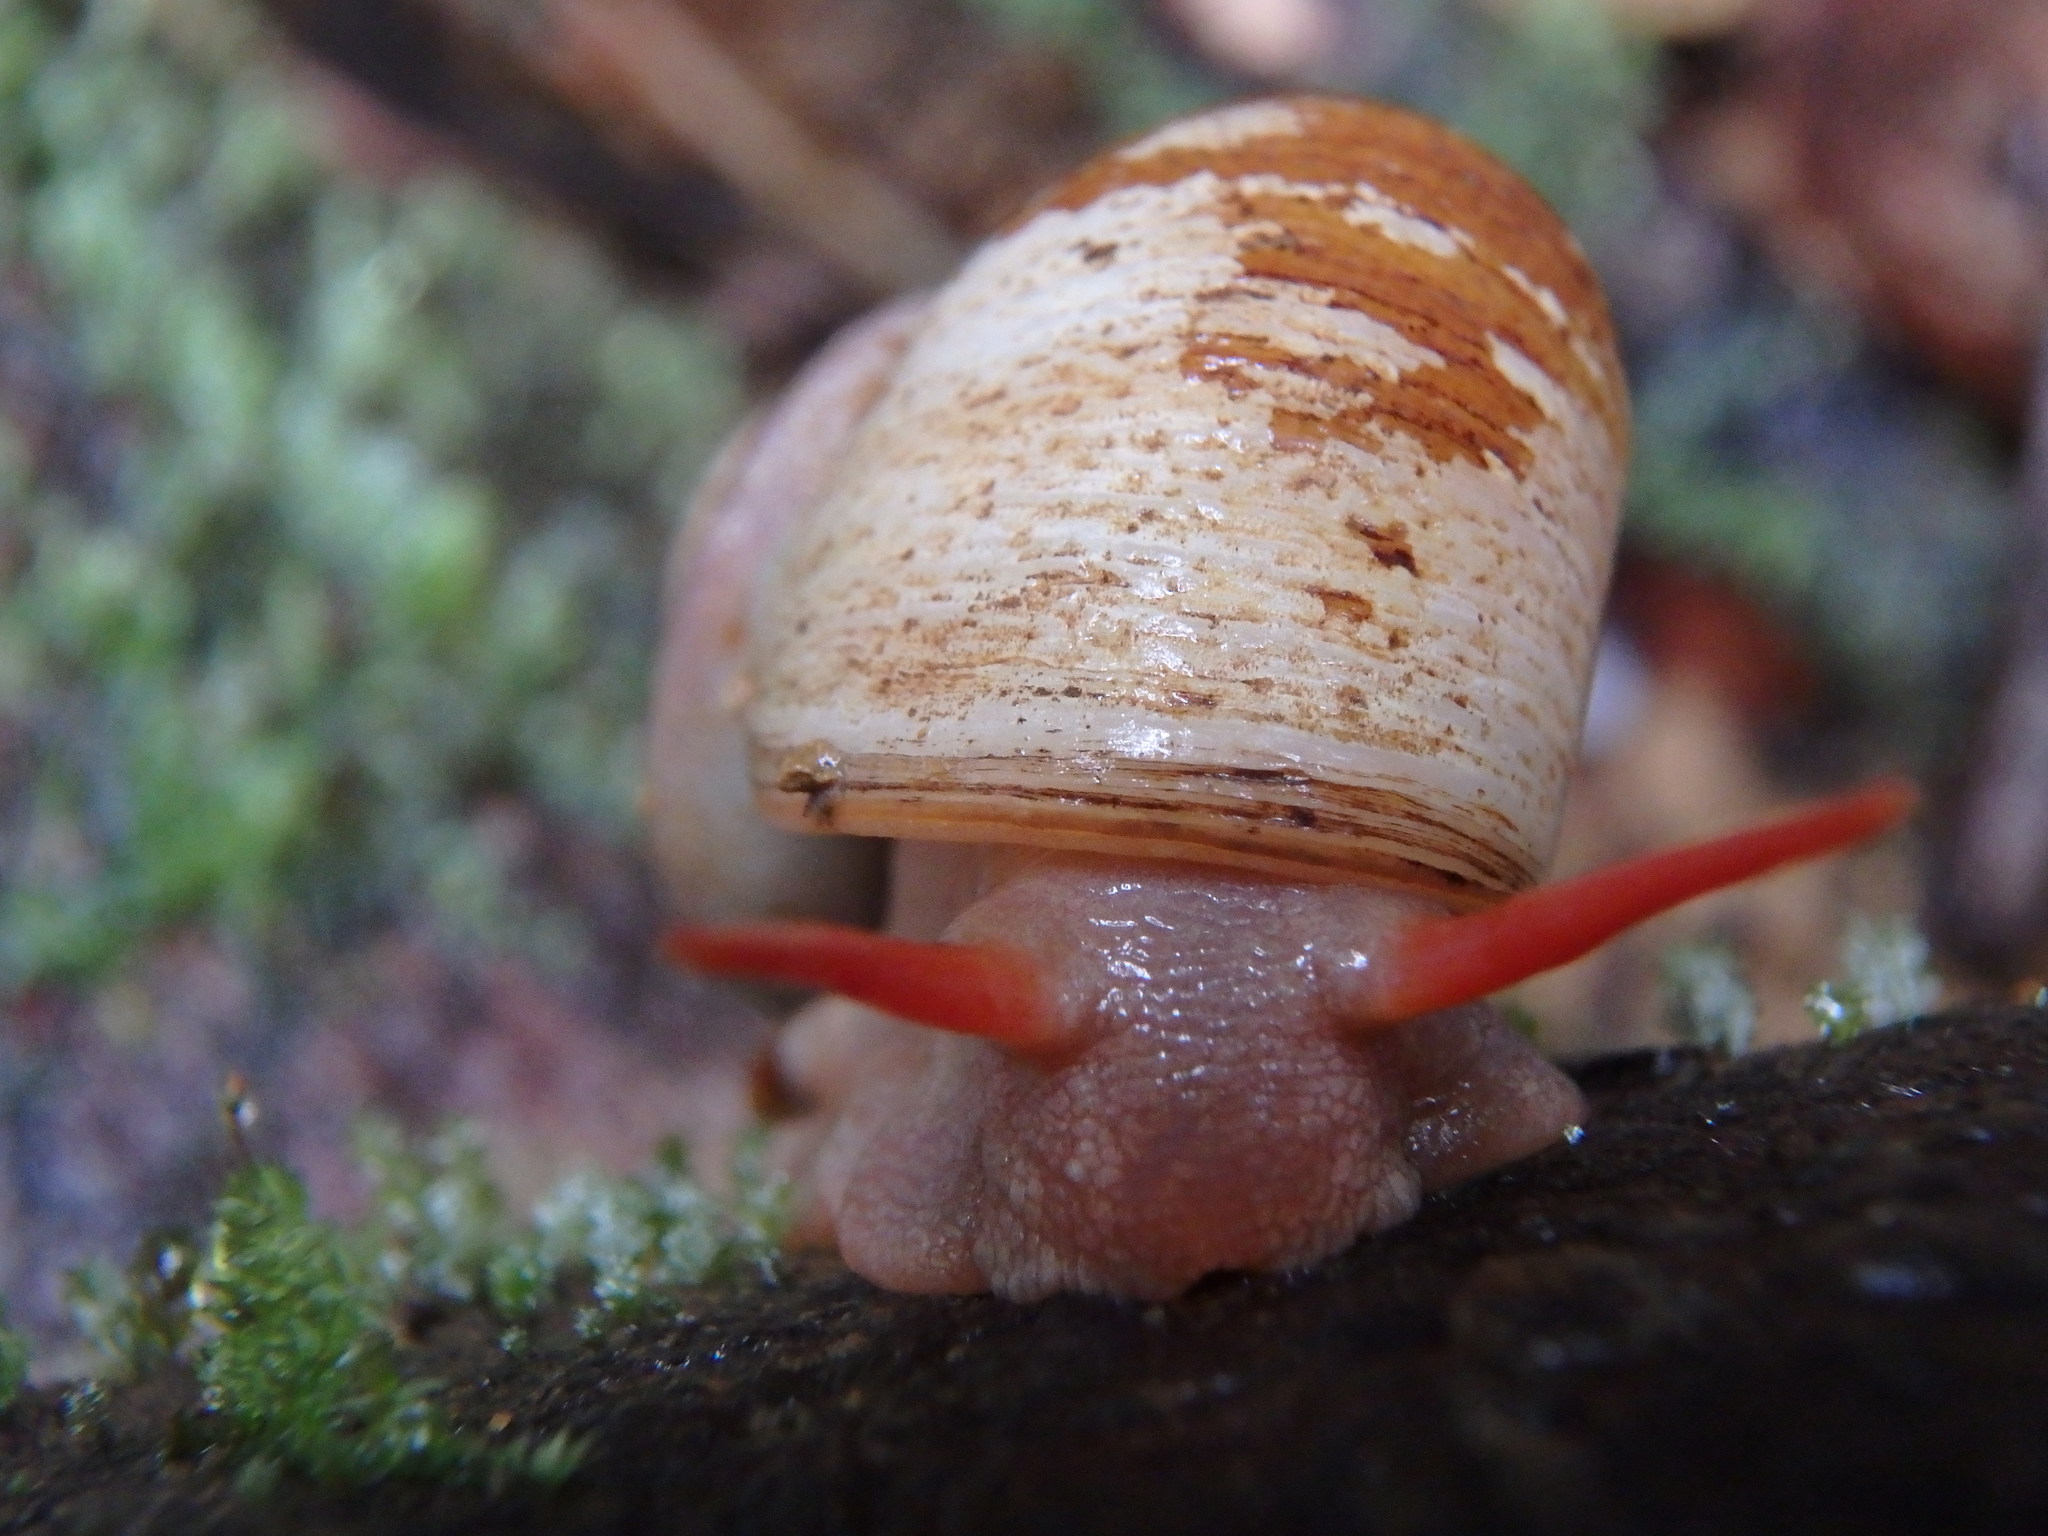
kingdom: Animalia
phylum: Mollusca
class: Gastropoda
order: Architaenioglossa
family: Neocyclotidae
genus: Neocyclotus
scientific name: Neocyclotus cayennensis
